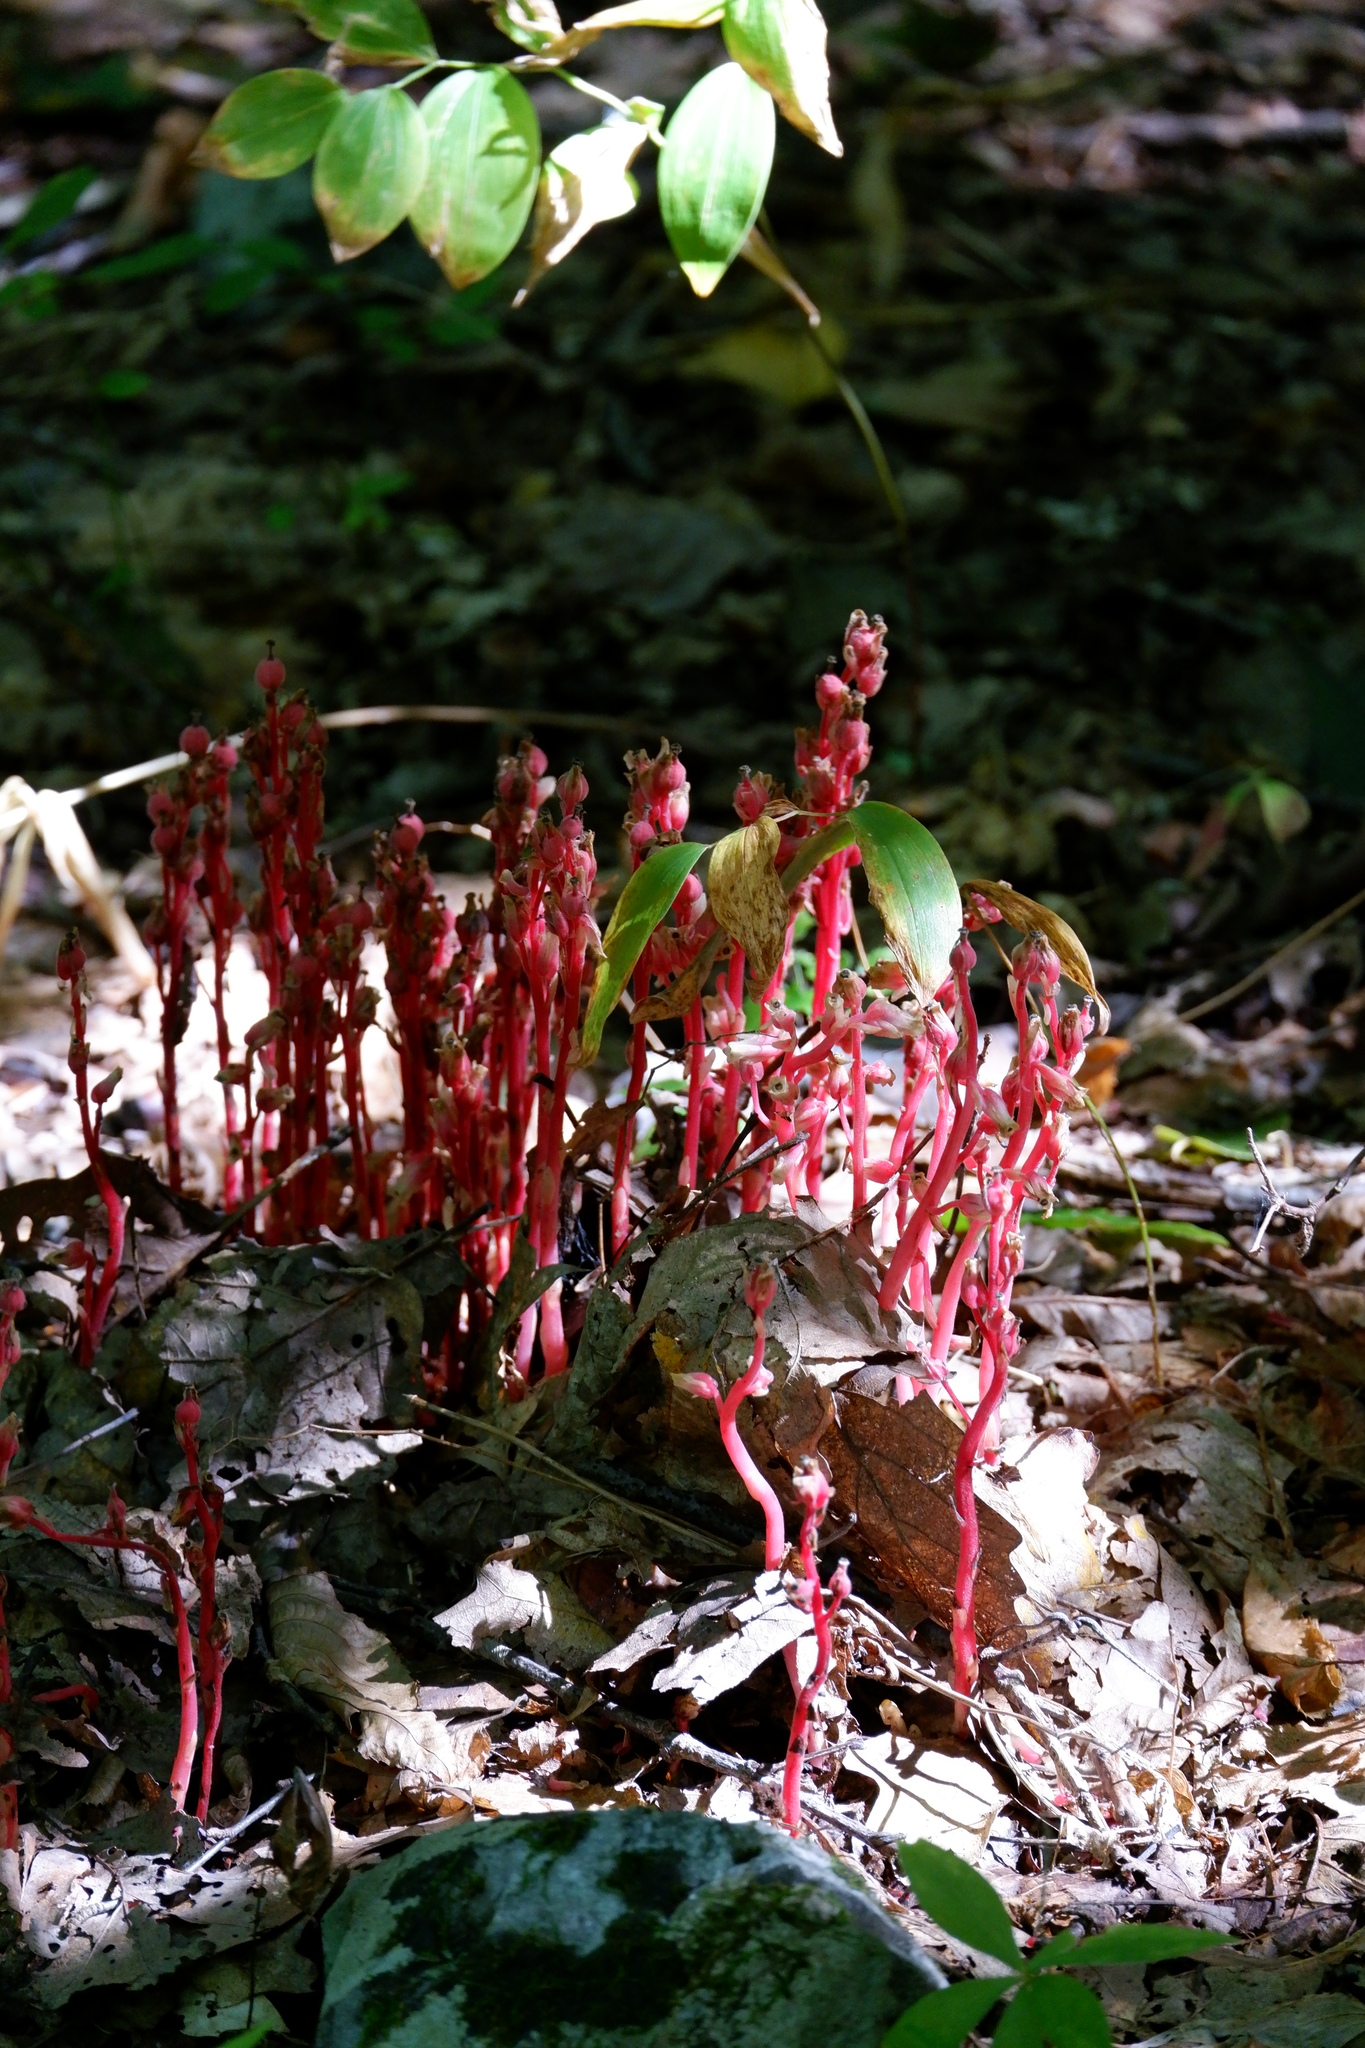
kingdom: Plantae
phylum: Tracheophyta
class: Magnoliopsida
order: Ericales
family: Ericaceae
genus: Hypopitys
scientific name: Hypopitys monotropa
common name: Yellow bird's-nest
